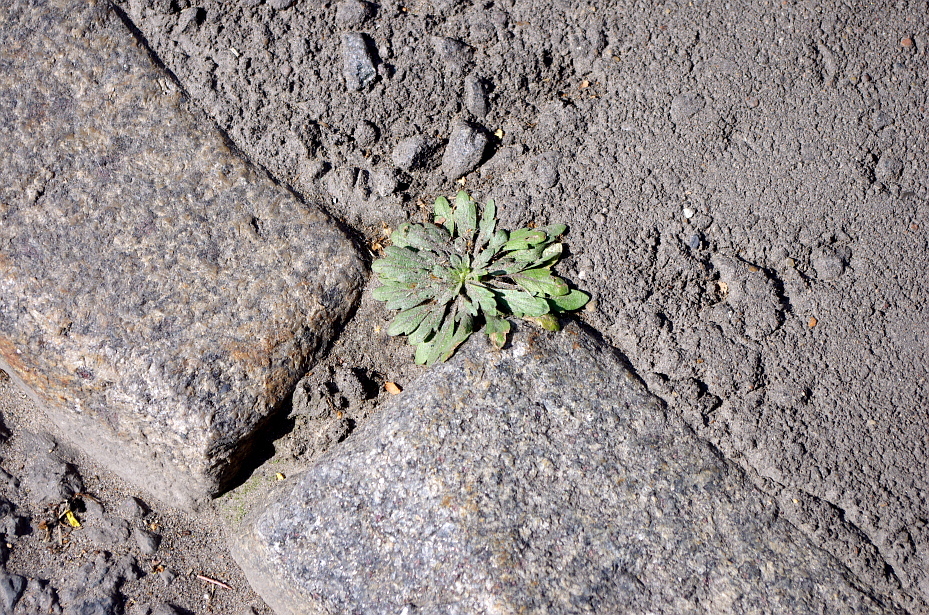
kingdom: Plantae
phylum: Tracheophyta
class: Magnoliopsida
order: Asterales
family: Asteraceae
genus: Erigeron
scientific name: Erigeron canadensis
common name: Canadian fleabane
